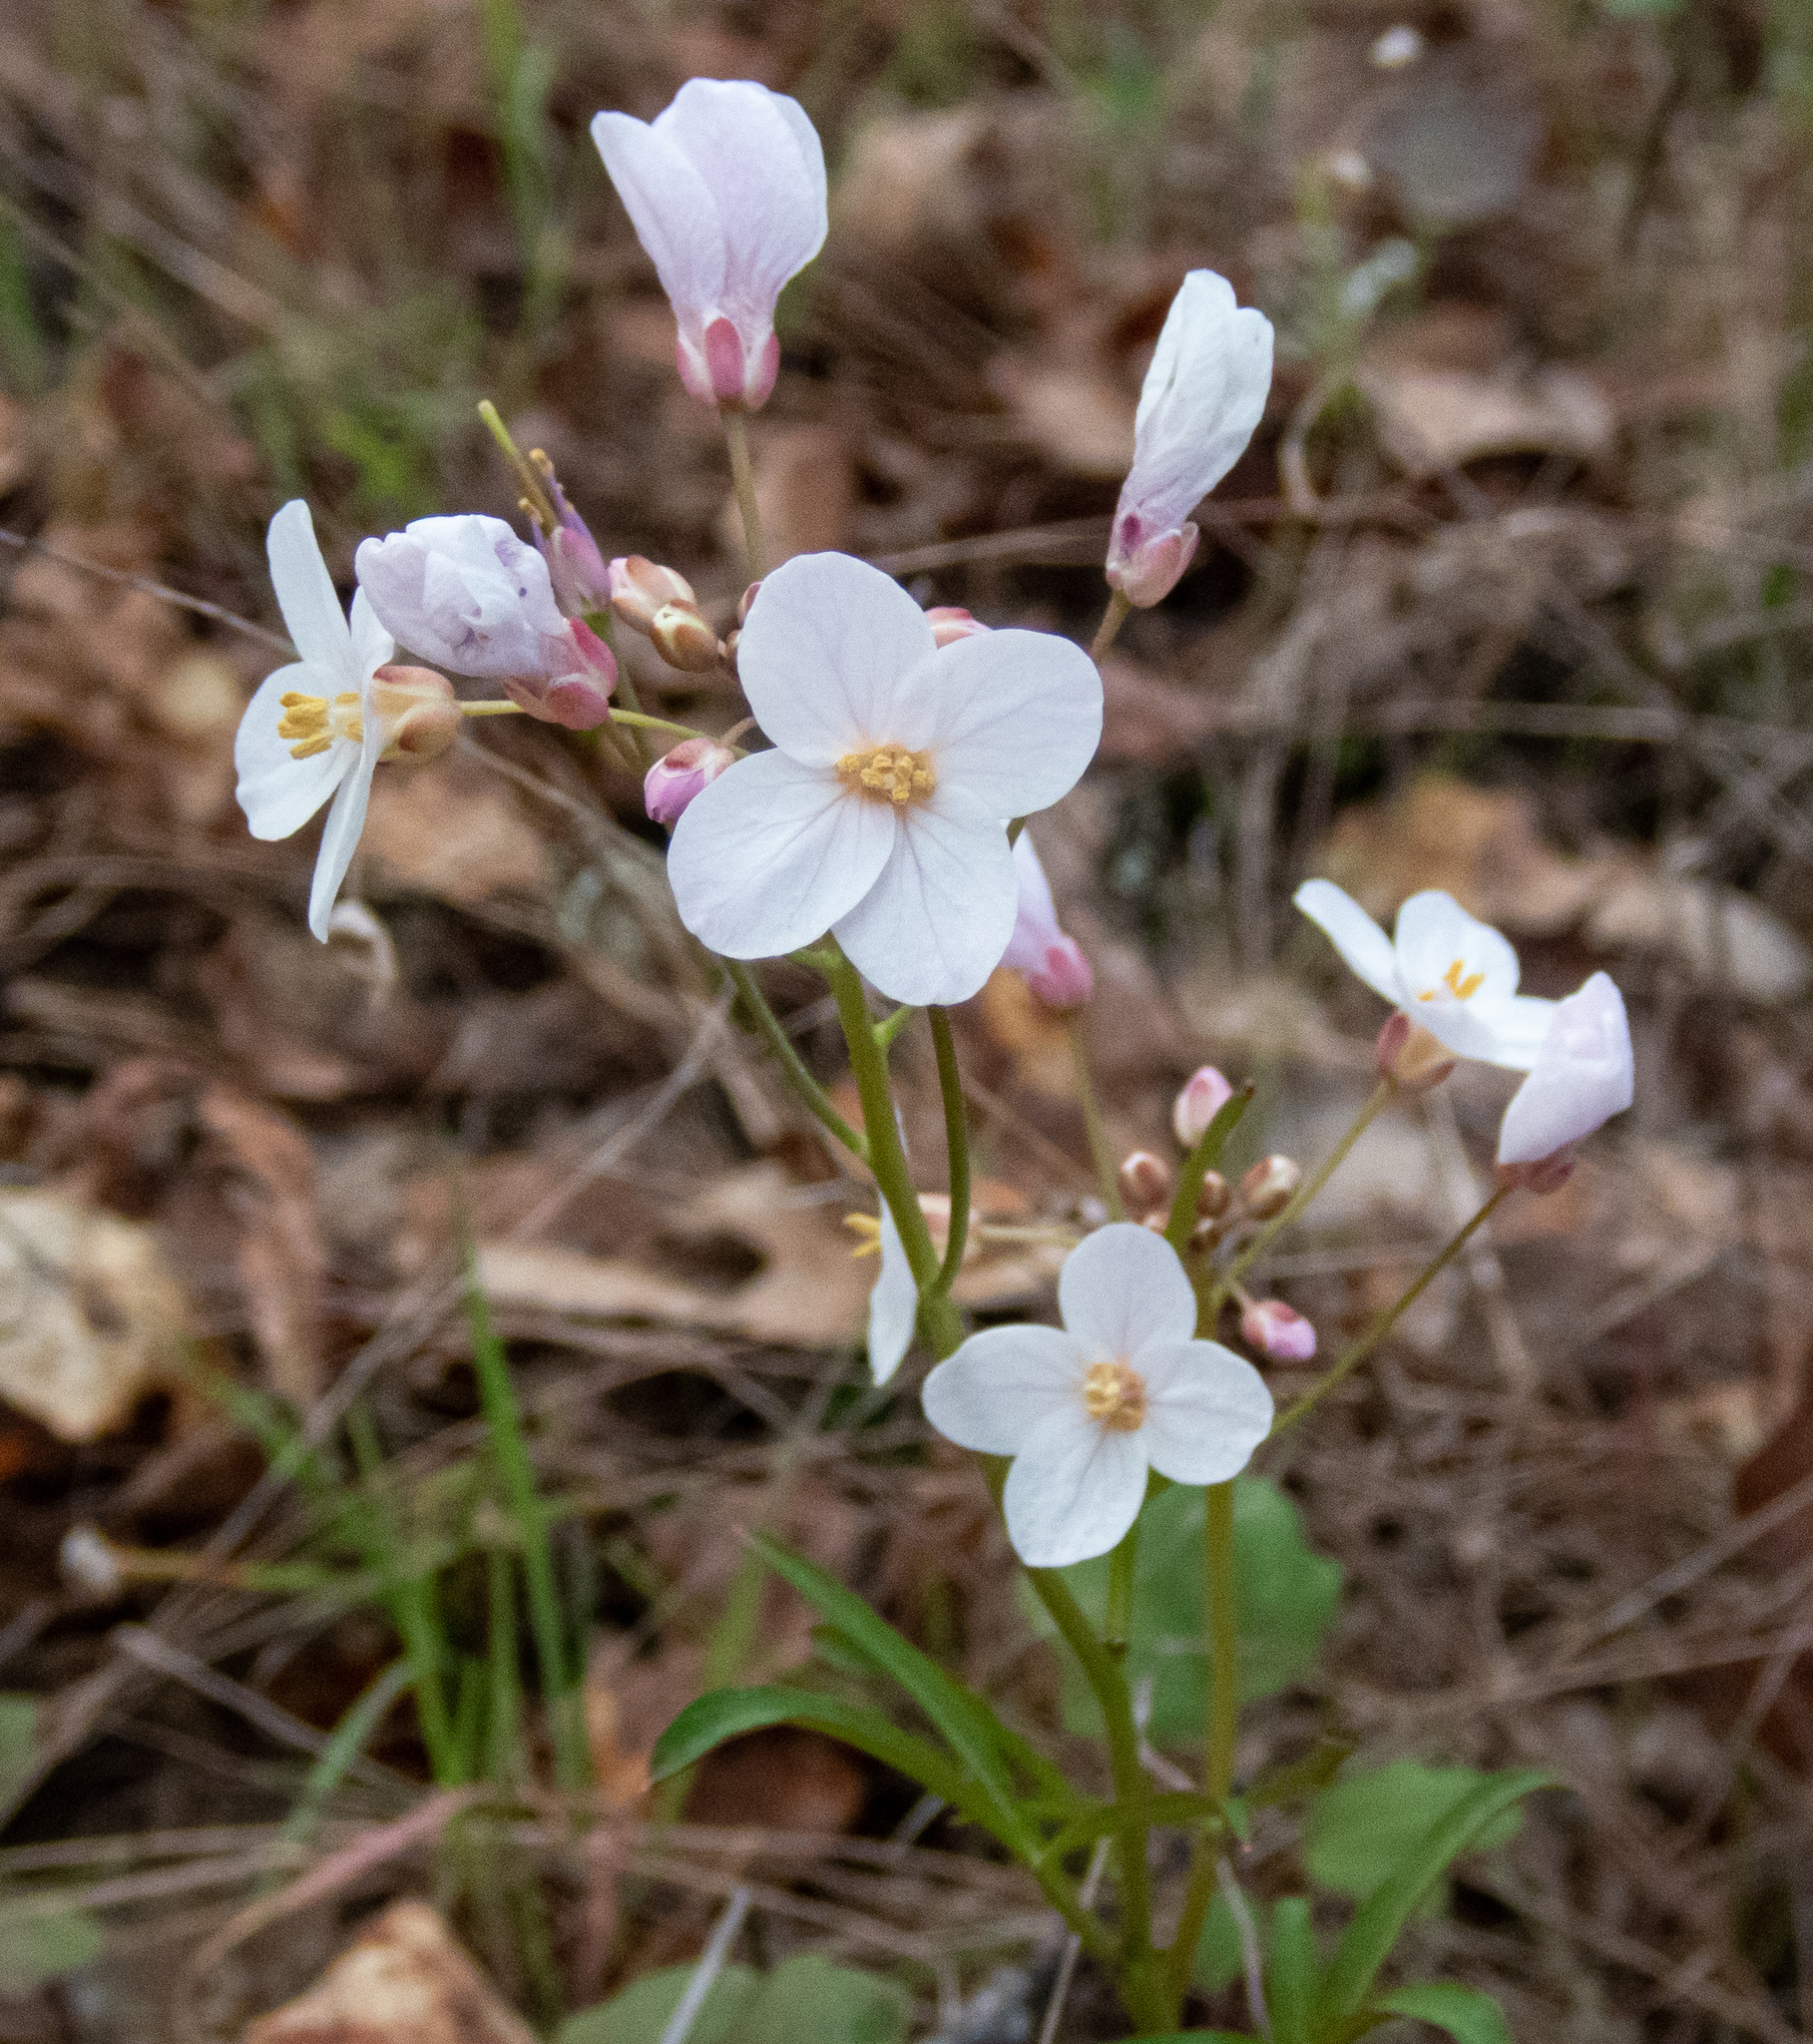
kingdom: Plantae
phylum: Tracheophyta
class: Magnoliopsida
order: Brassicales
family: Brassicaceae
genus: Cardamine
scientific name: Cardamine californica
